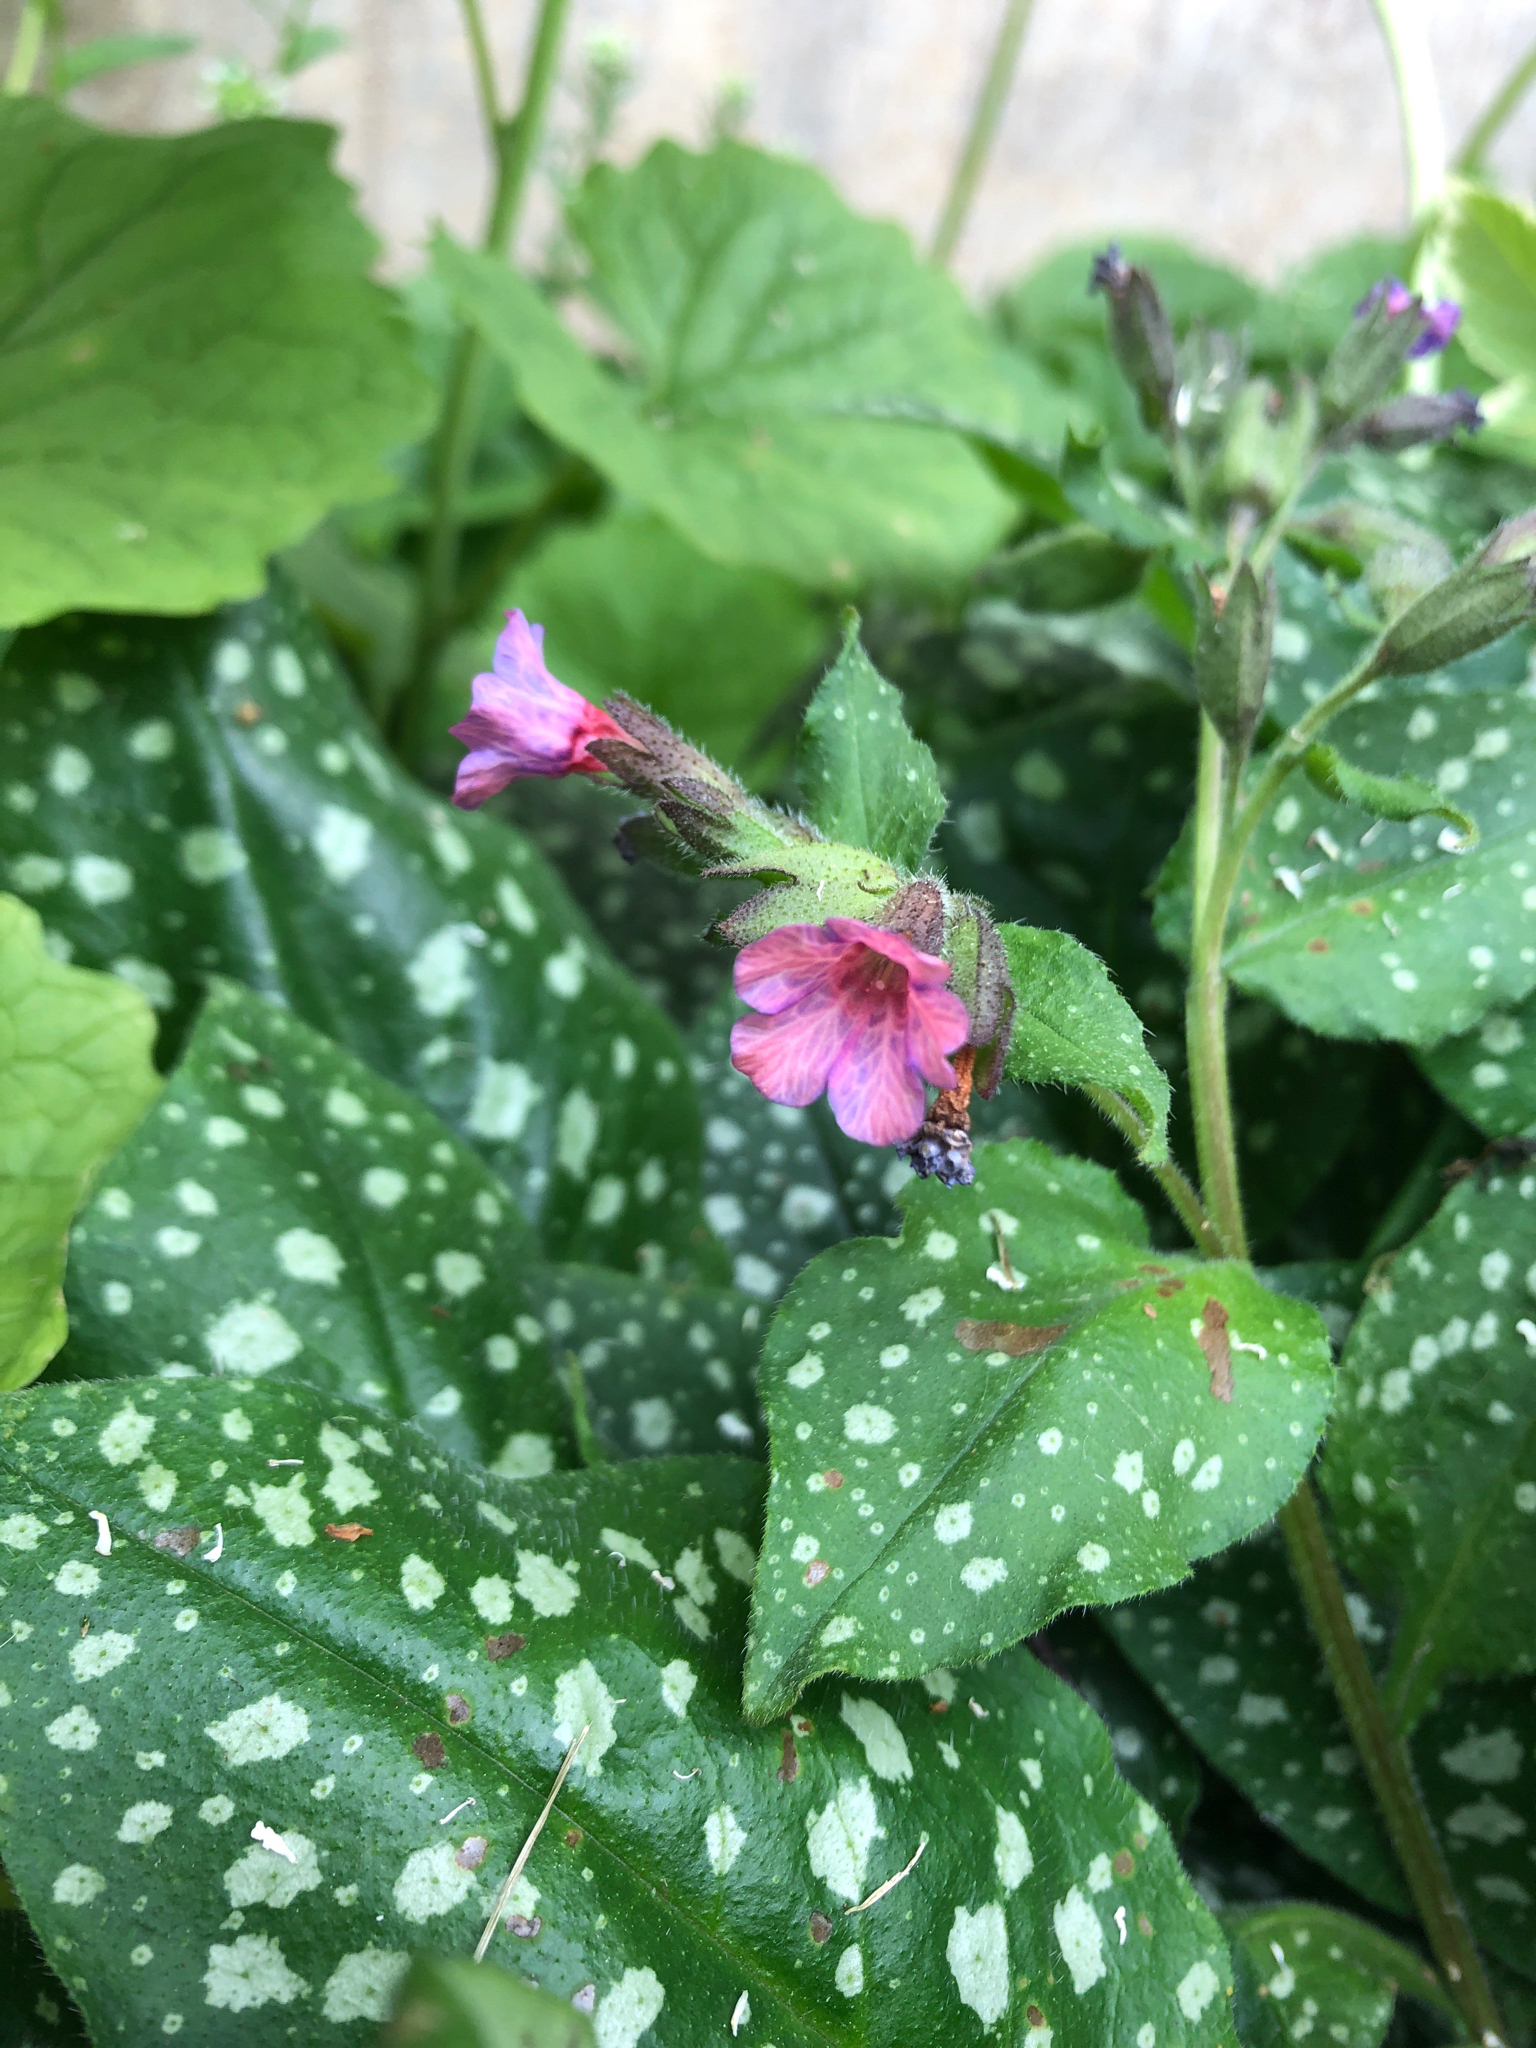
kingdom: Plantae
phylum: Tracheophyta
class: Magnoliopsida
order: Boraginales
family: Boraginaceae
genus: Pulmonaria
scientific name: Pulmonaria officinalis
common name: Lungwort
